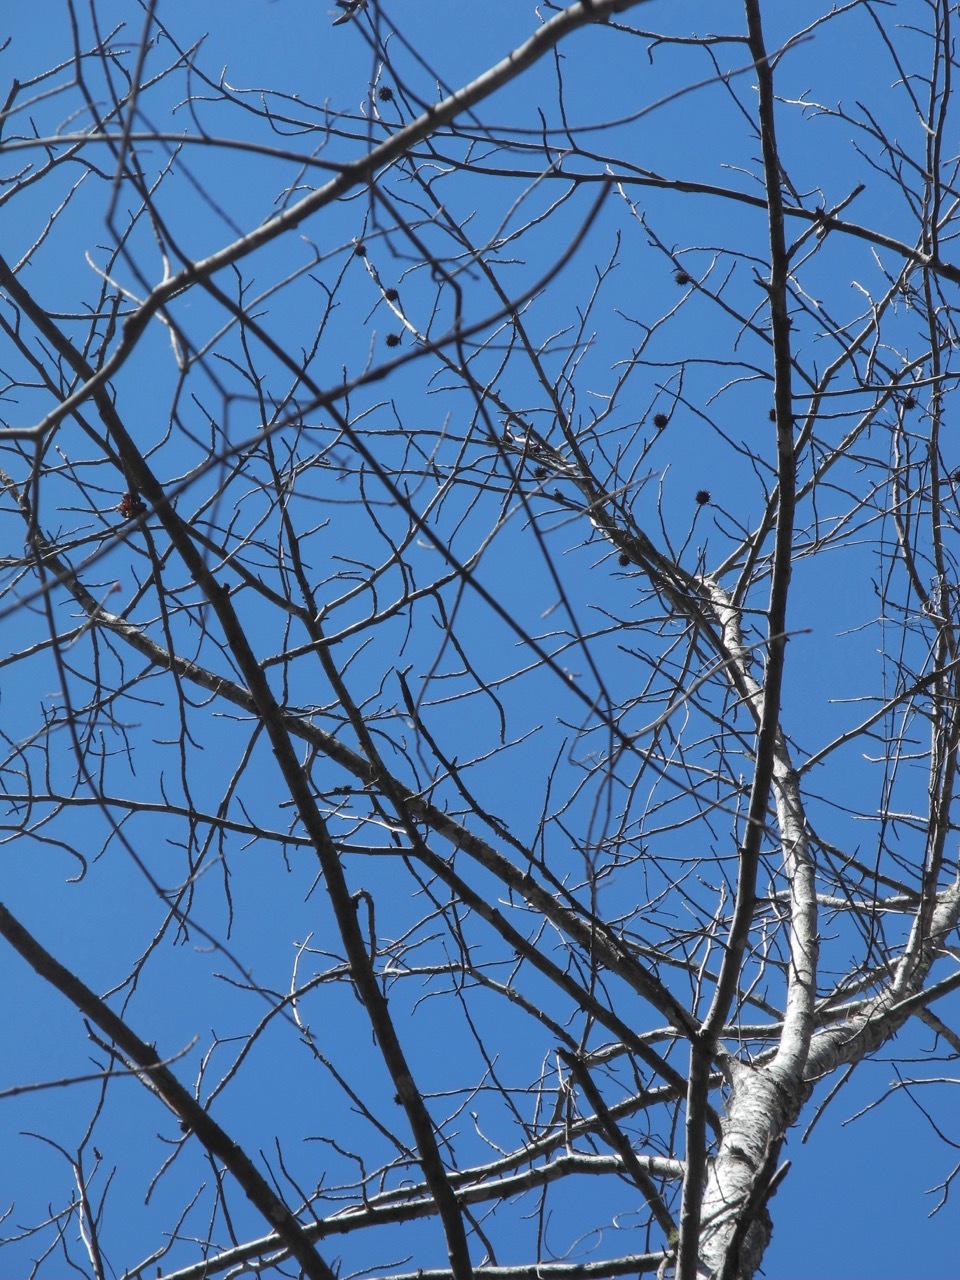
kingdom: Plantae
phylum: Tracheophyta
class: Magnoliopsida
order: Saxifragales
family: Altingiaceae
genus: Liquidambar
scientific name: Liquidambar styraciflua
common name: Sweet gum
